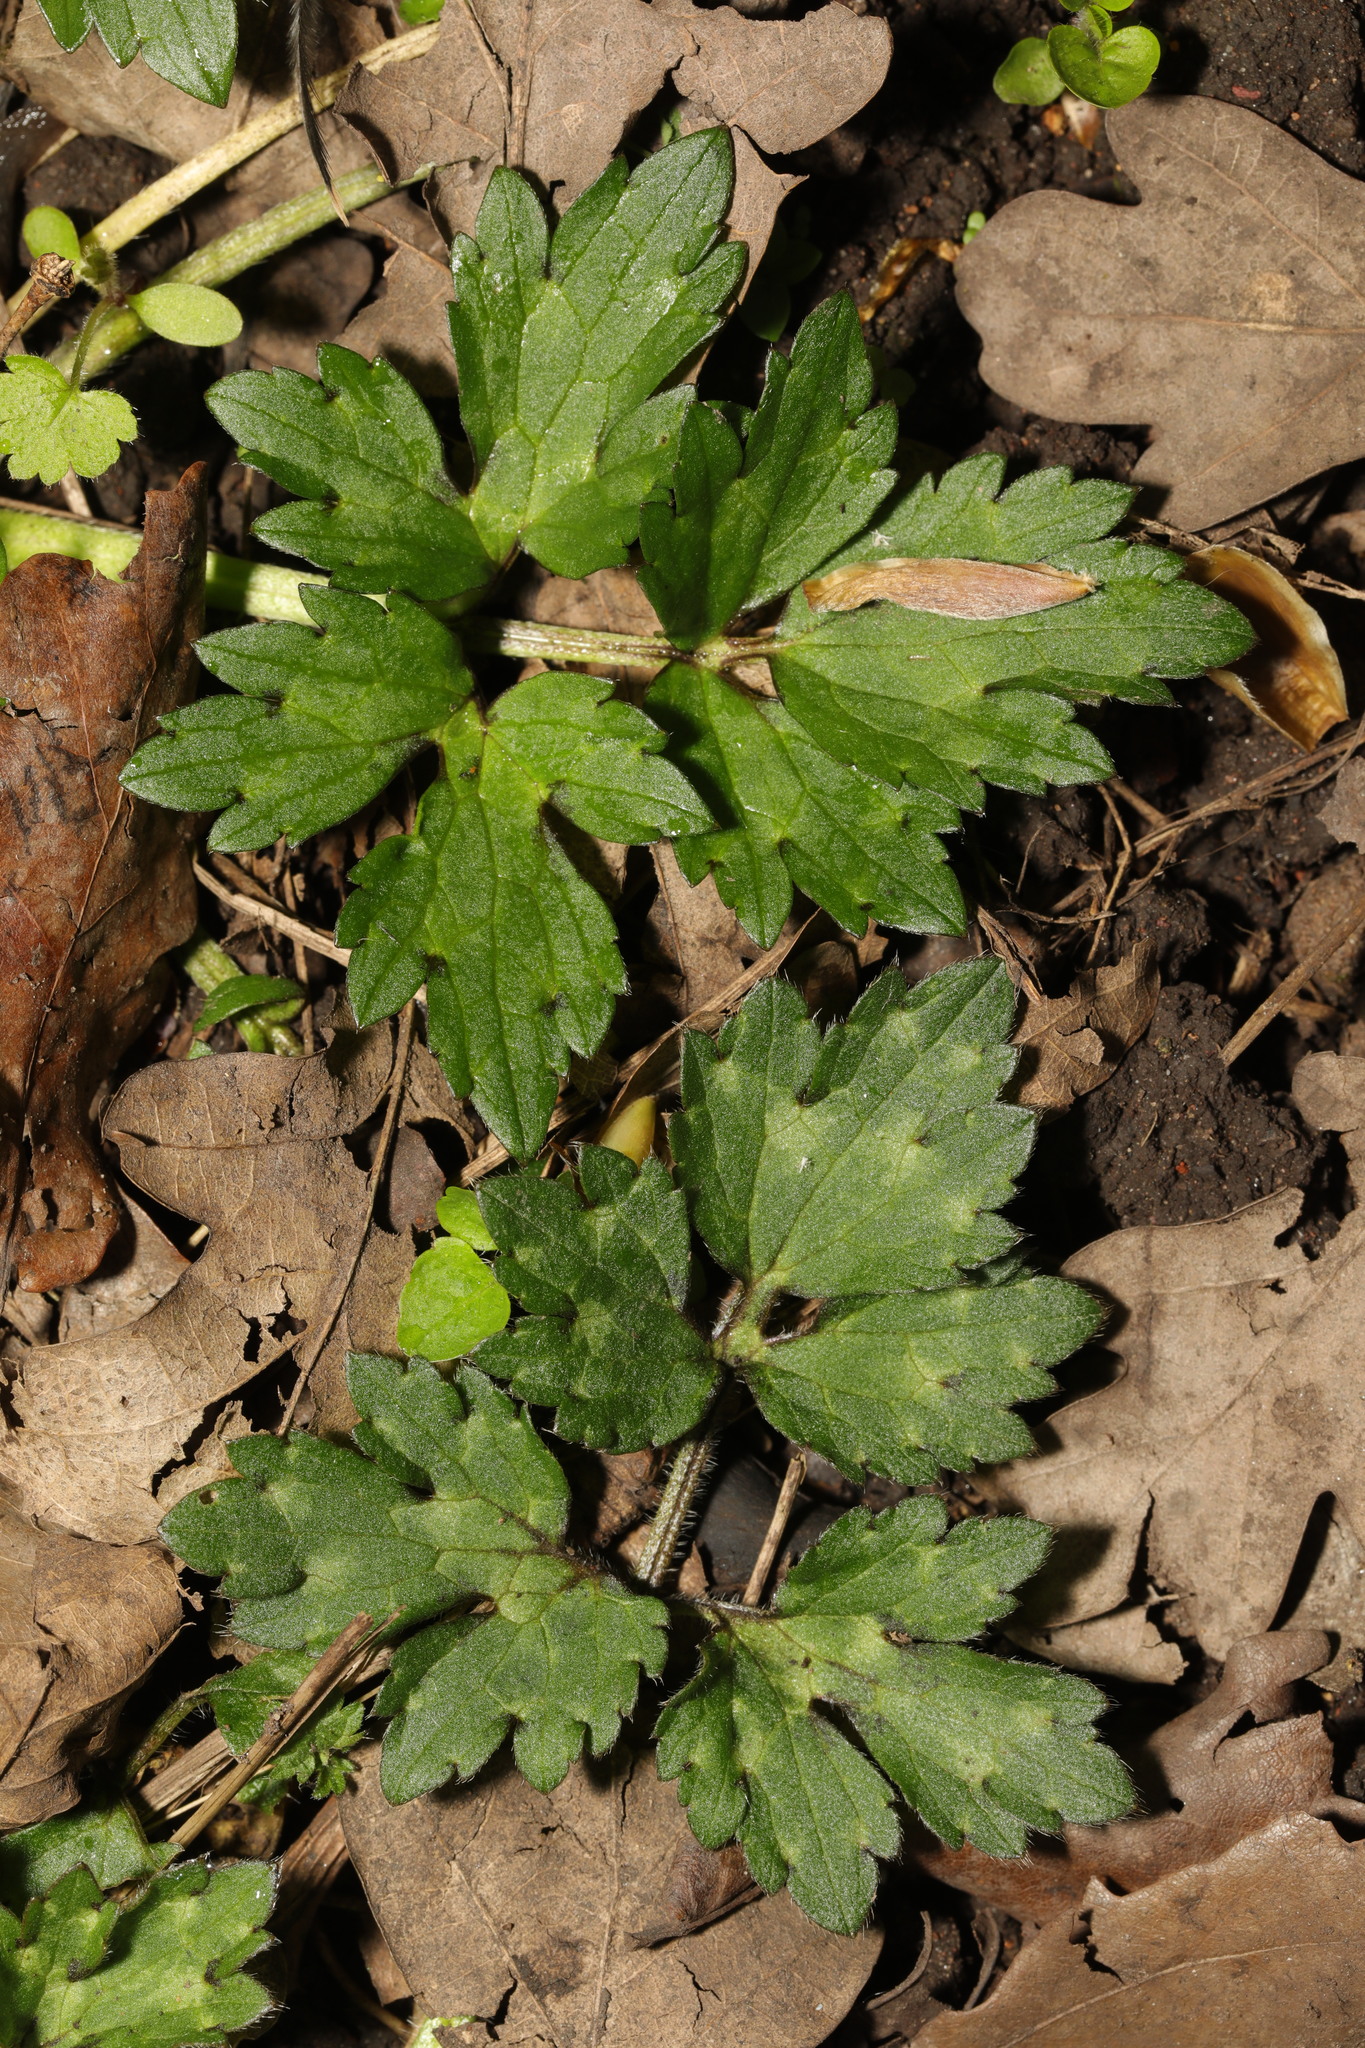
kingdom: Plantae
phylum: Tracheophyta
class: Magnoliopsida
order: Ranunculales
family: Ranunculaceae
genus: Ranunculus
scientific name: Ranunculus repens
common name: Creeping buttercup
